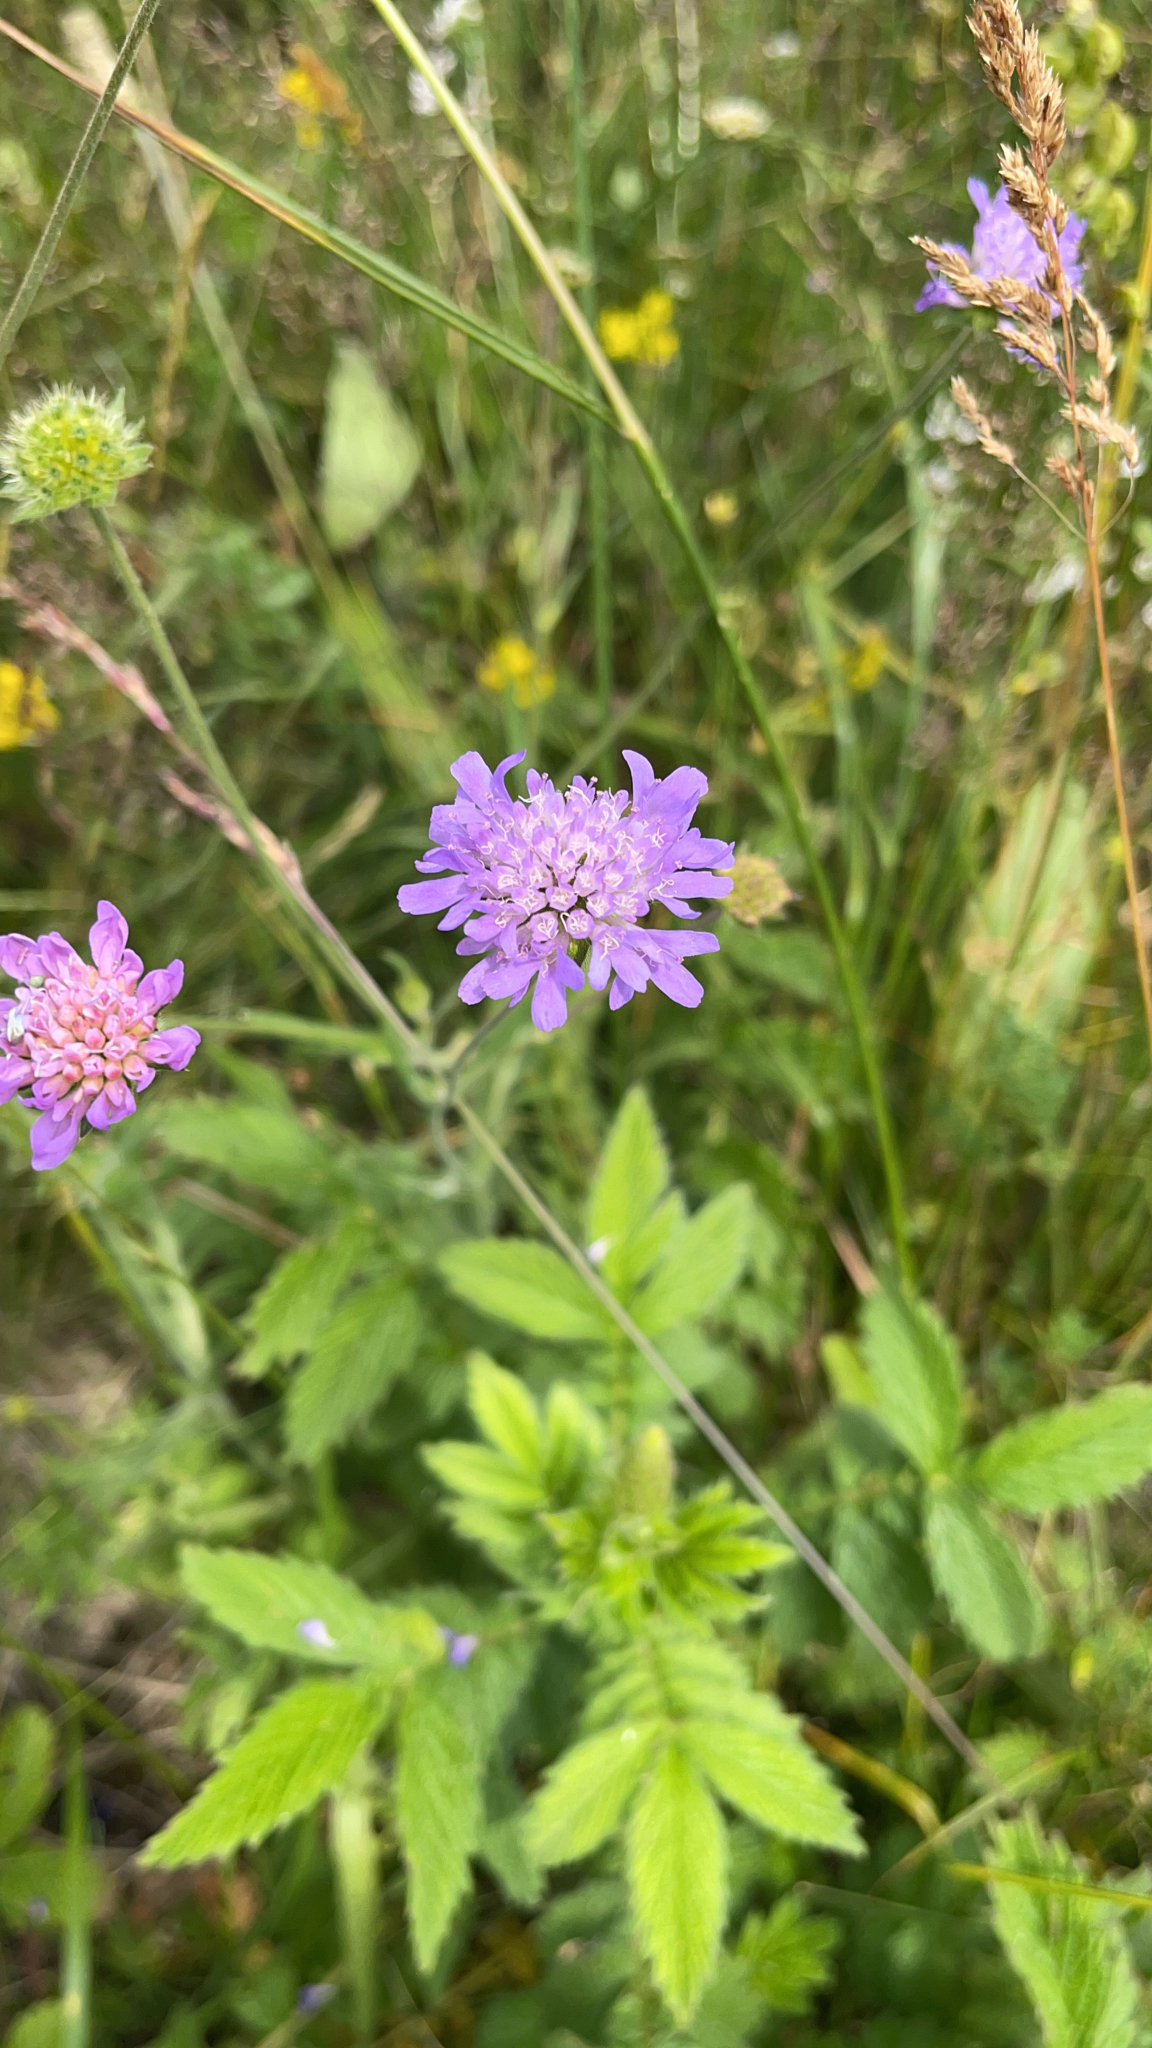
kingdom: Plantae
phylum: Tracheophyta
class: Magnoliopsida
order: Dipsacales
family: Caprifoliaceae
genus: Knautia
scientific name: Knautia arvensis
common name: Field scabiosa
